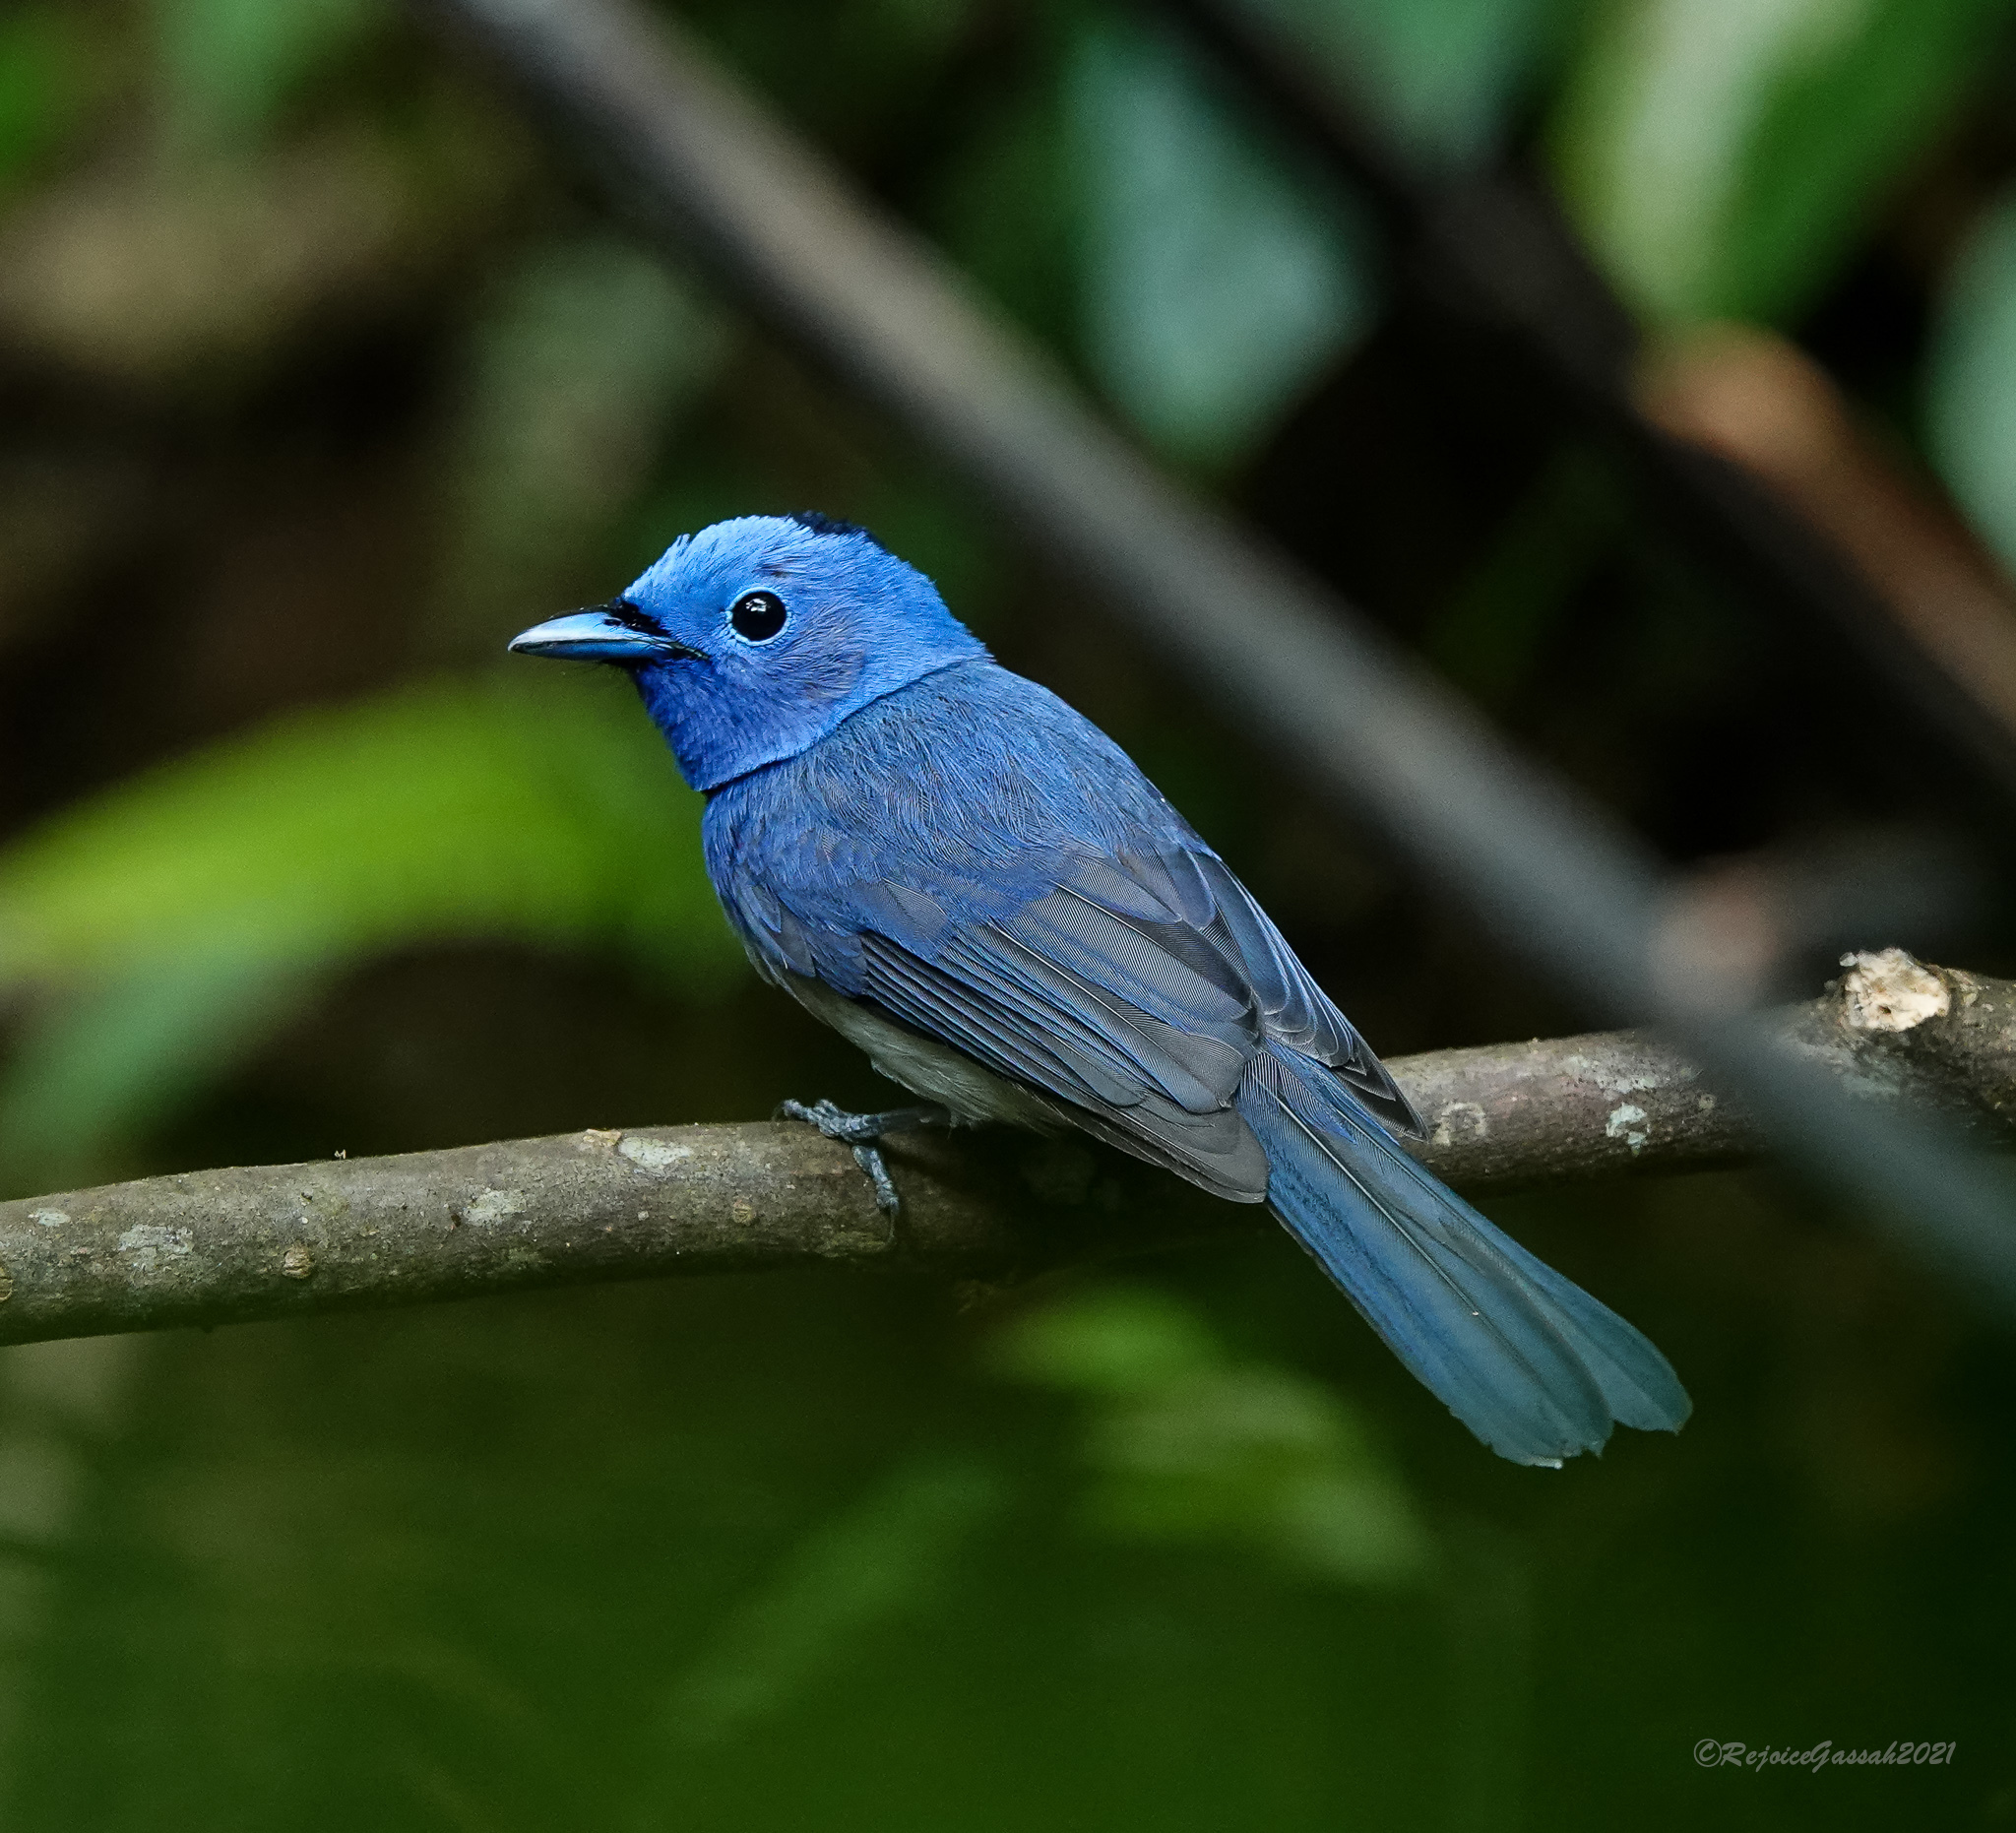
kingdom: Animalia
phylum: Chordata
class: Aves
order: Passeriformes
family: Monarchidae
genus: Hypothymis
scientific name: Hypothymis azurea
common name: Black-naped monarch
